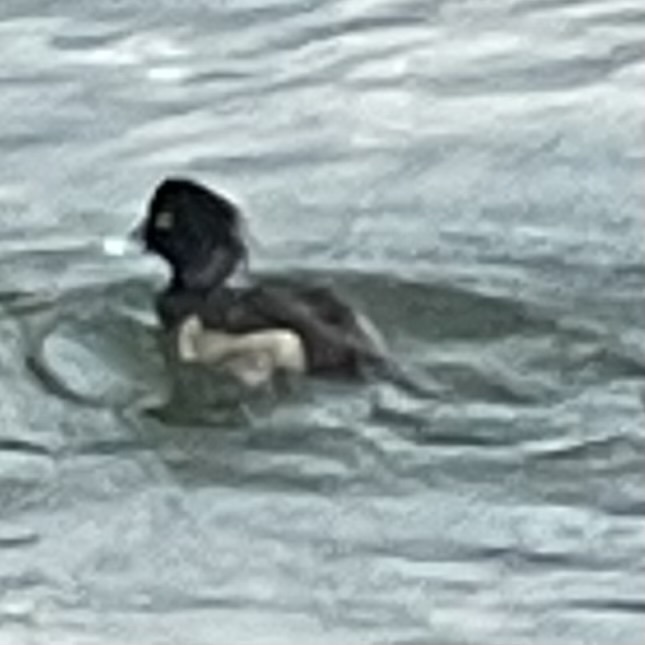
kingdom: Animalia
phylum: Chordata
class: Aves
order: Anseriformes
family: Anatidae
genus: Aythya
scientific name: Aythya fuligula
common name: Tufted duck
